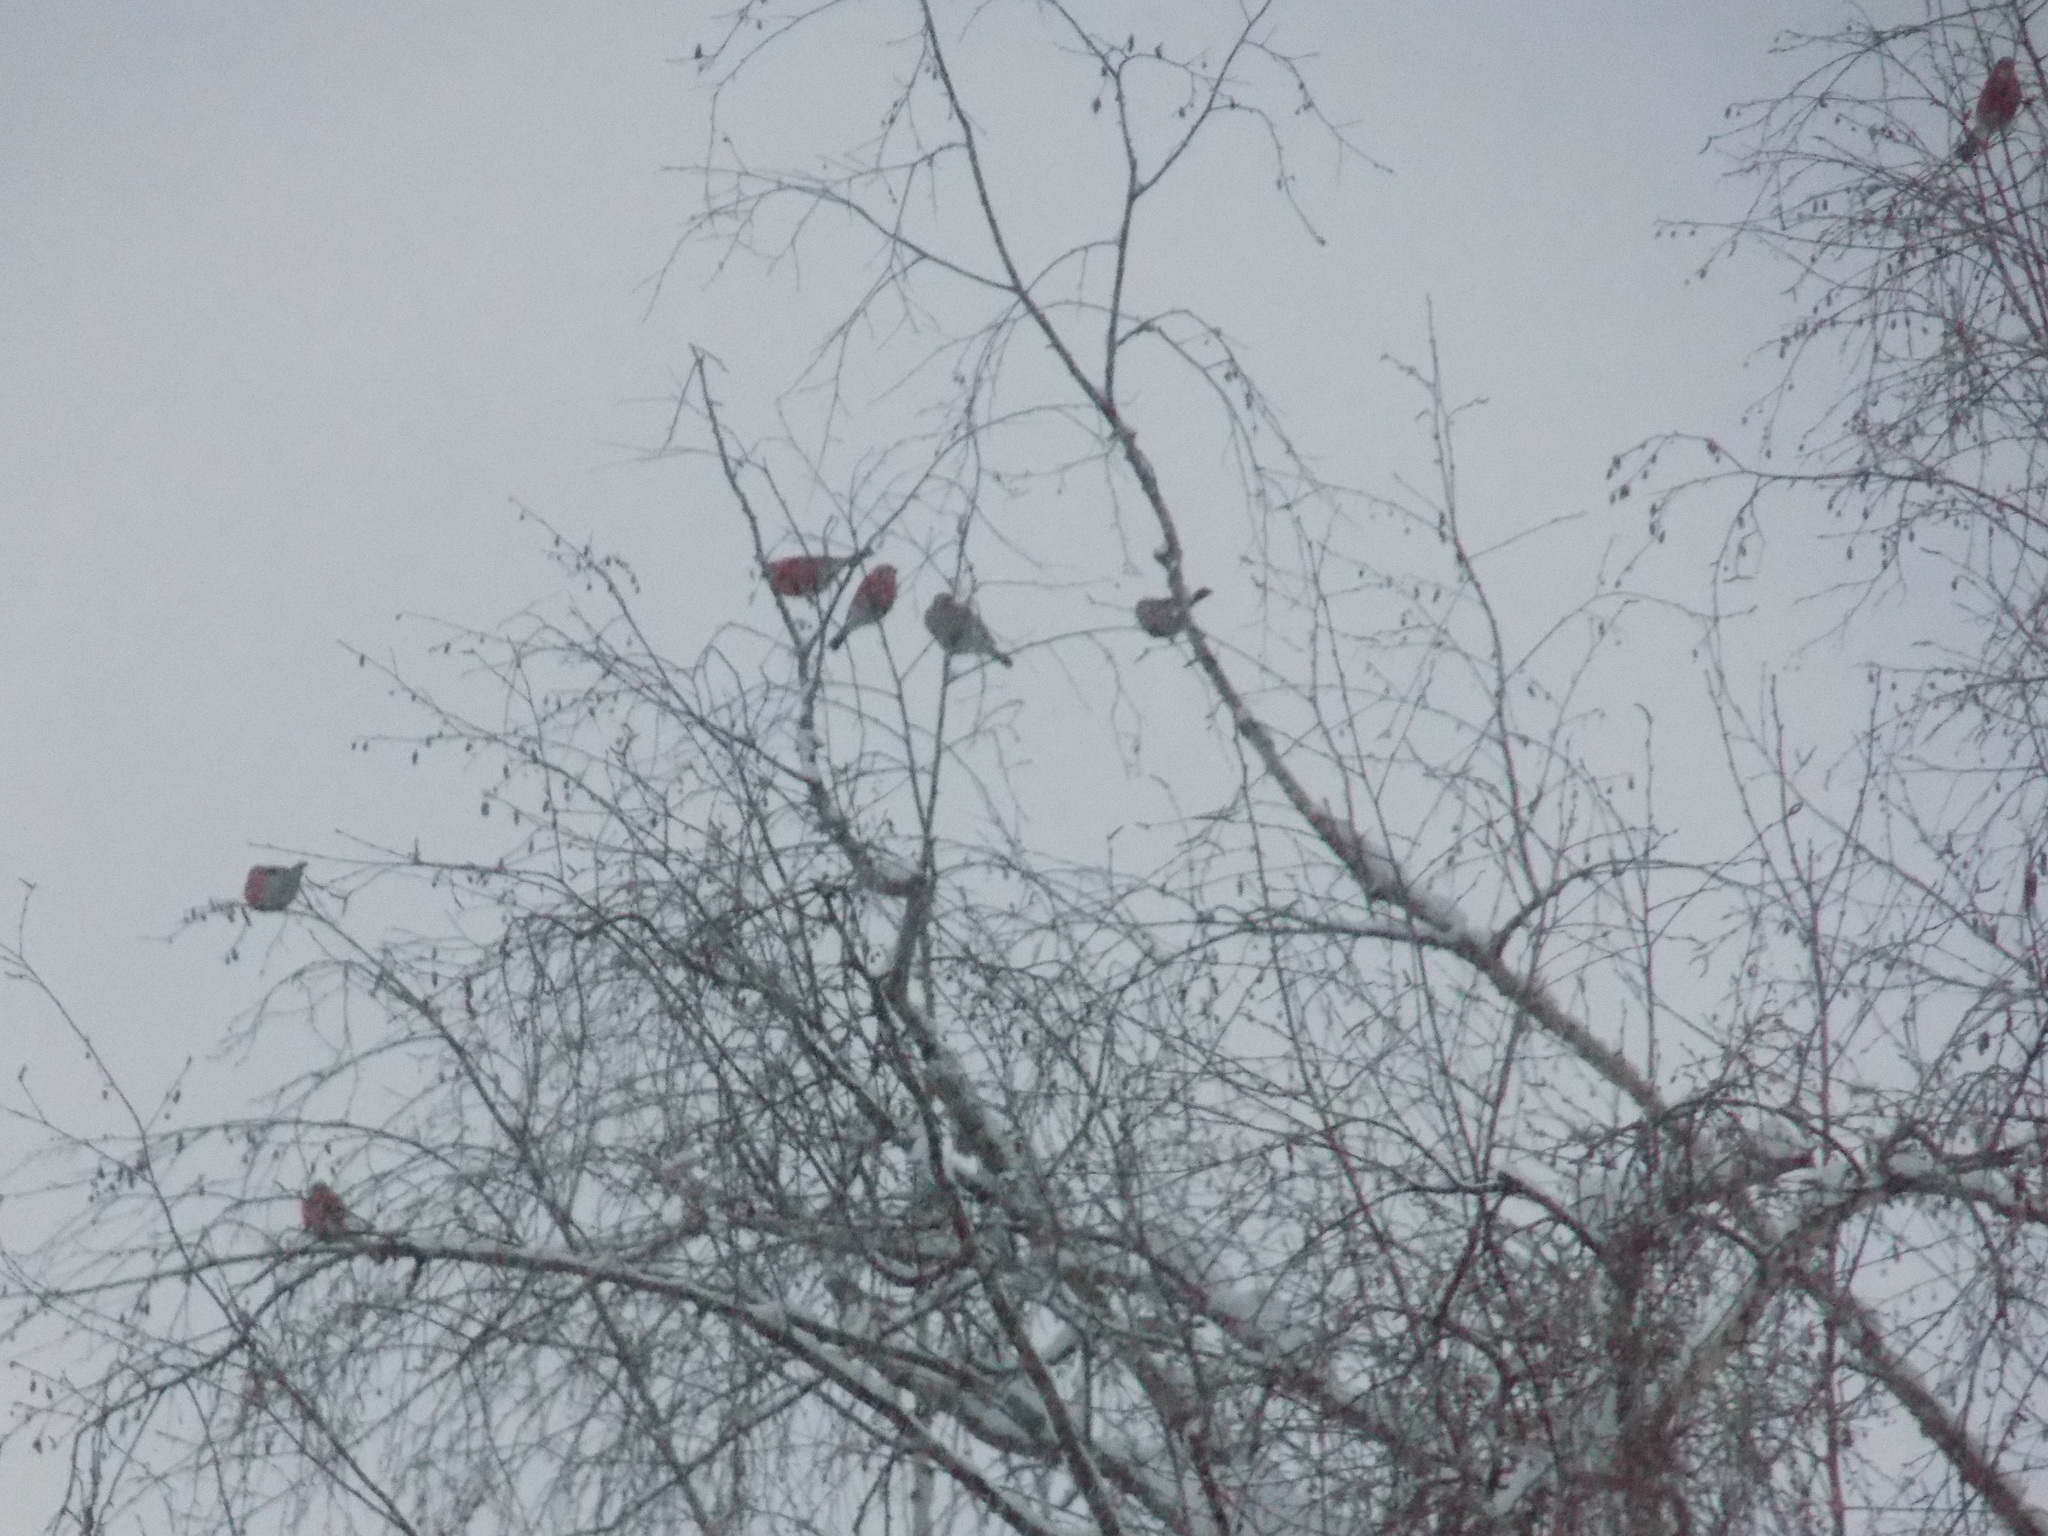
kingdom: Animalia
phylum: Chordata
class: Aves
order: Passeriformes
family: Fringillidae
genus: Pyrrhula
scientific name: Pyrrhula pyrrhula
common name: Eurasian bullfinch
